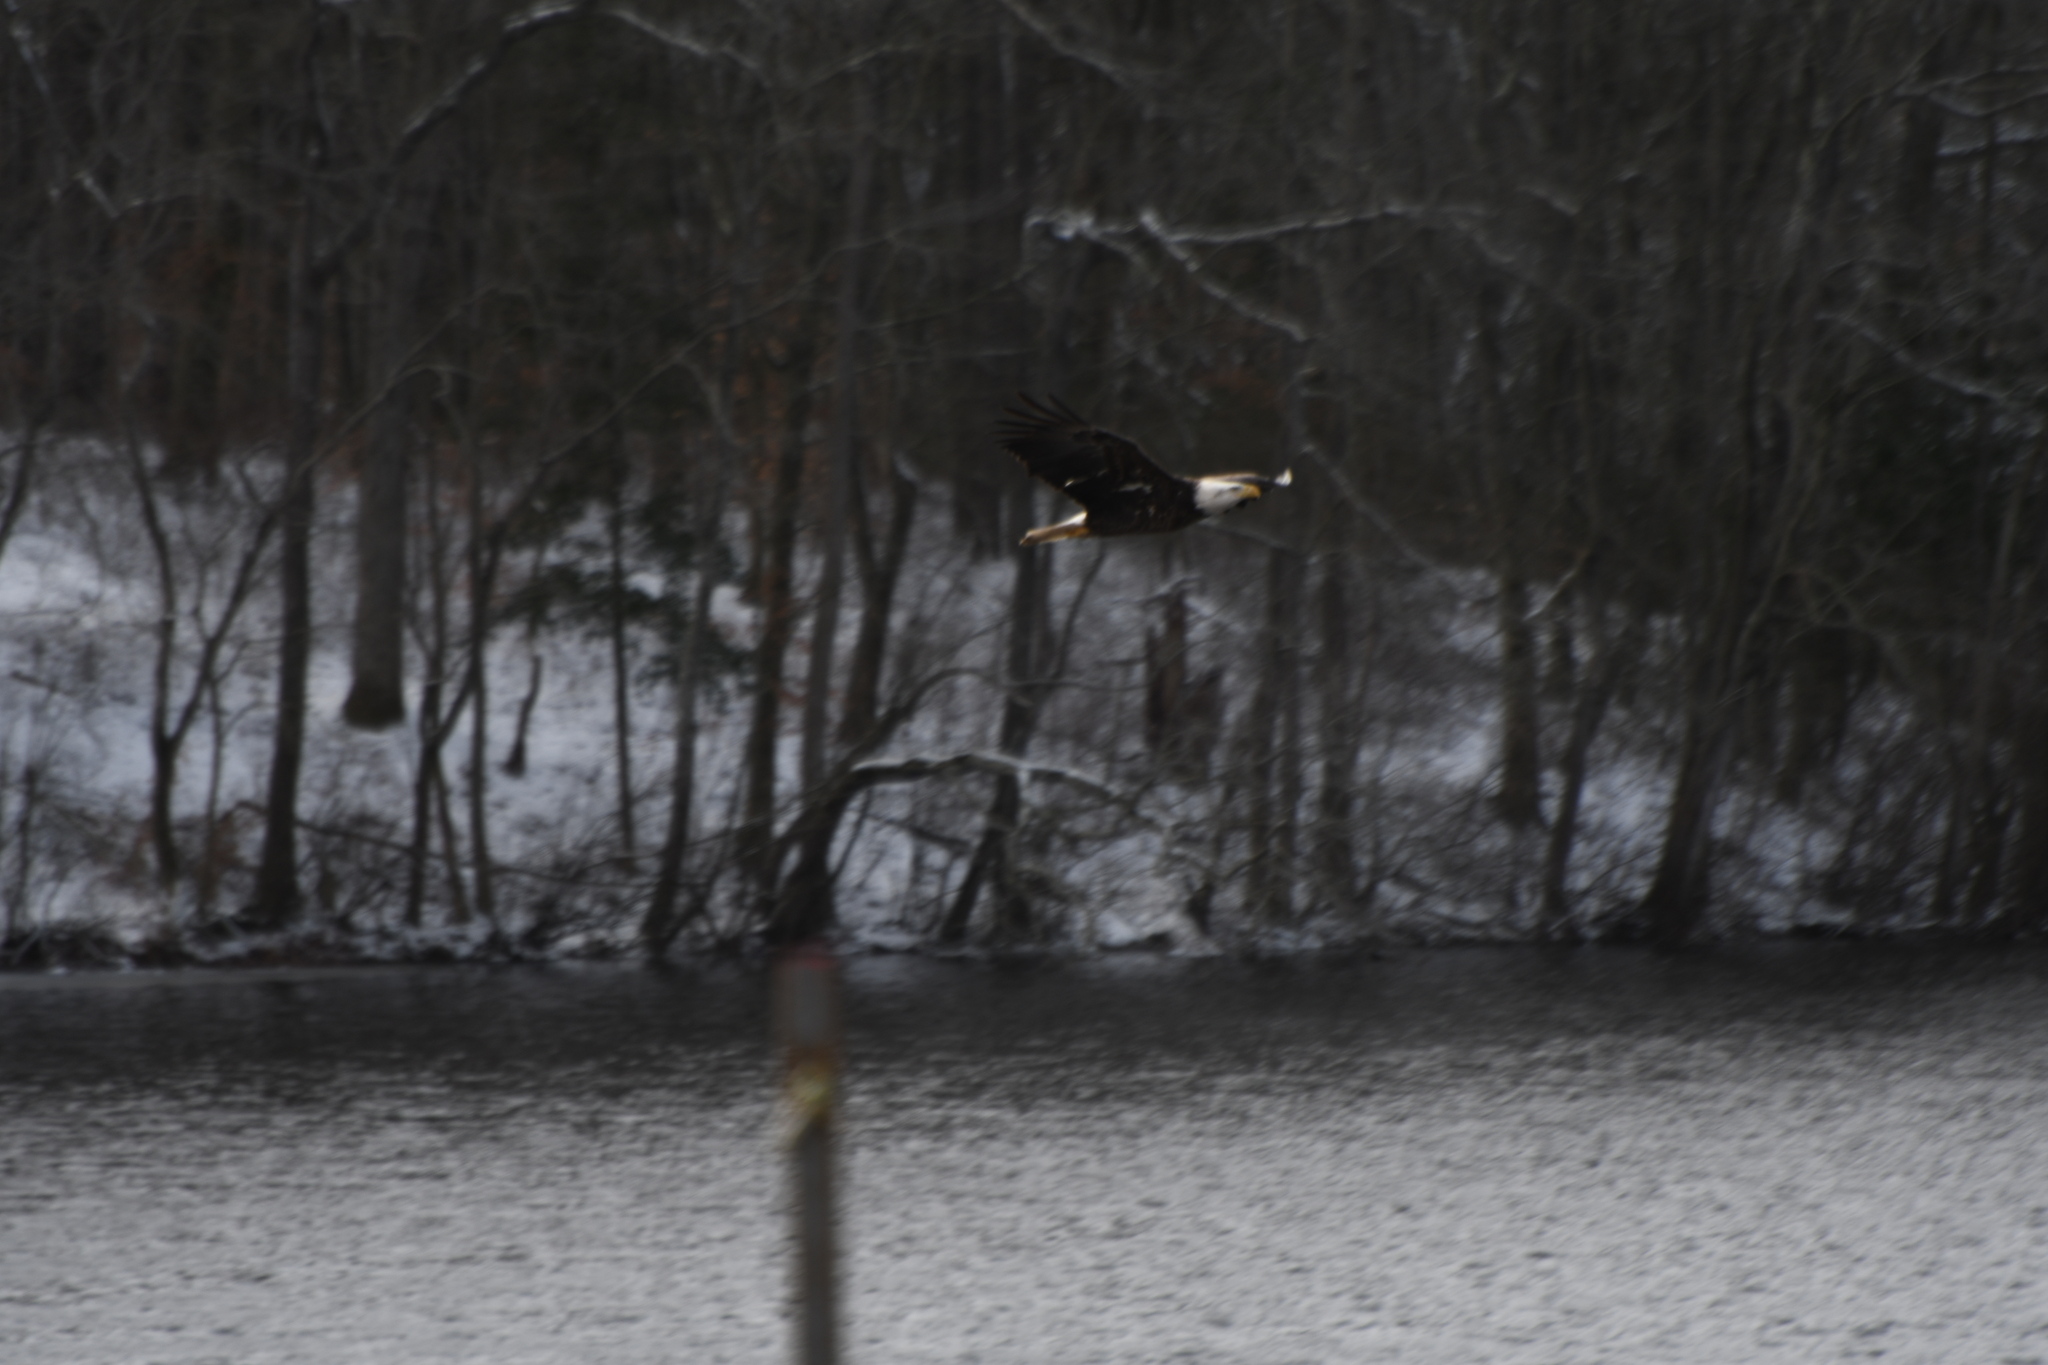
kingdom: Animalia
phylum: Chordata
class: Aves
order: Accipitriformes
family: Accipitridae
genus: Haliaeetus
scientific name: Haliaeetus leucocephalus
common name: Bald eagle
